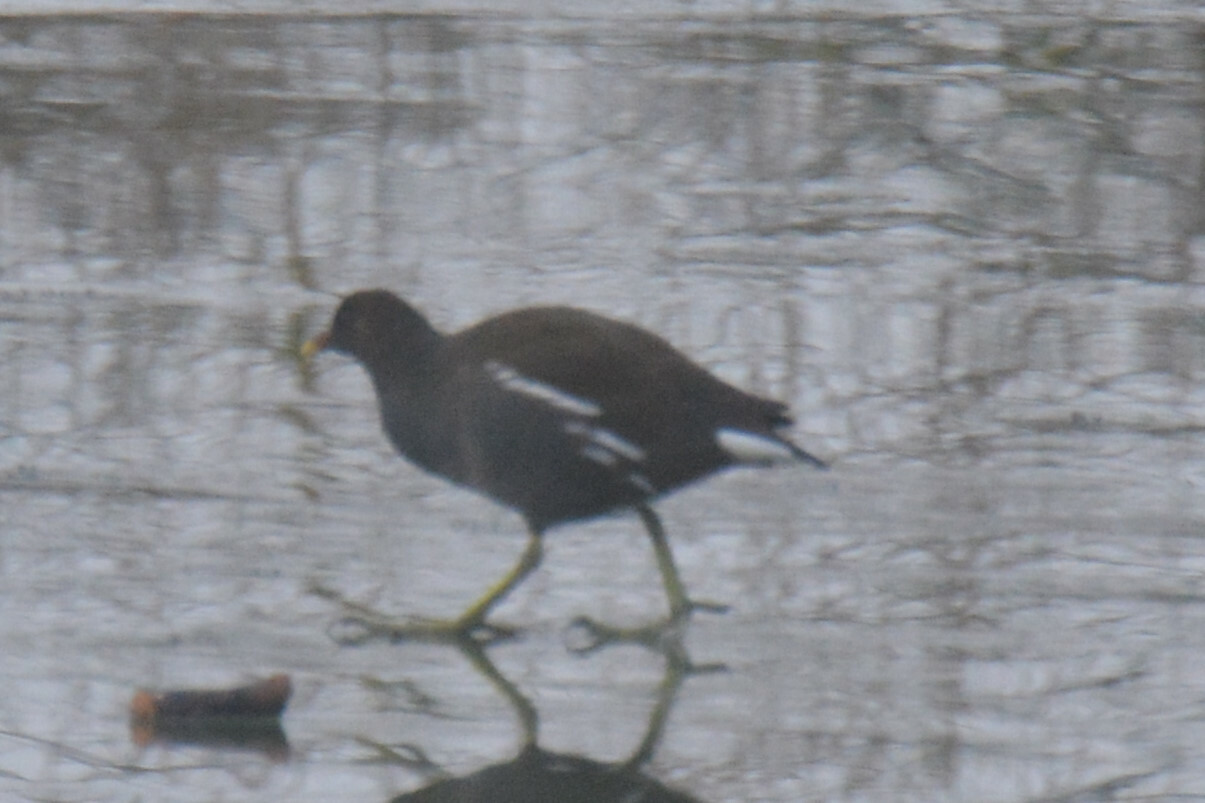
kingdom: Animalia
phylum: Chordata
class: Aves
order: Gruiformes
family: Rallidae
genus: Gallinula
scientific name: Gallinula chloropus
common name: Common moorhen
